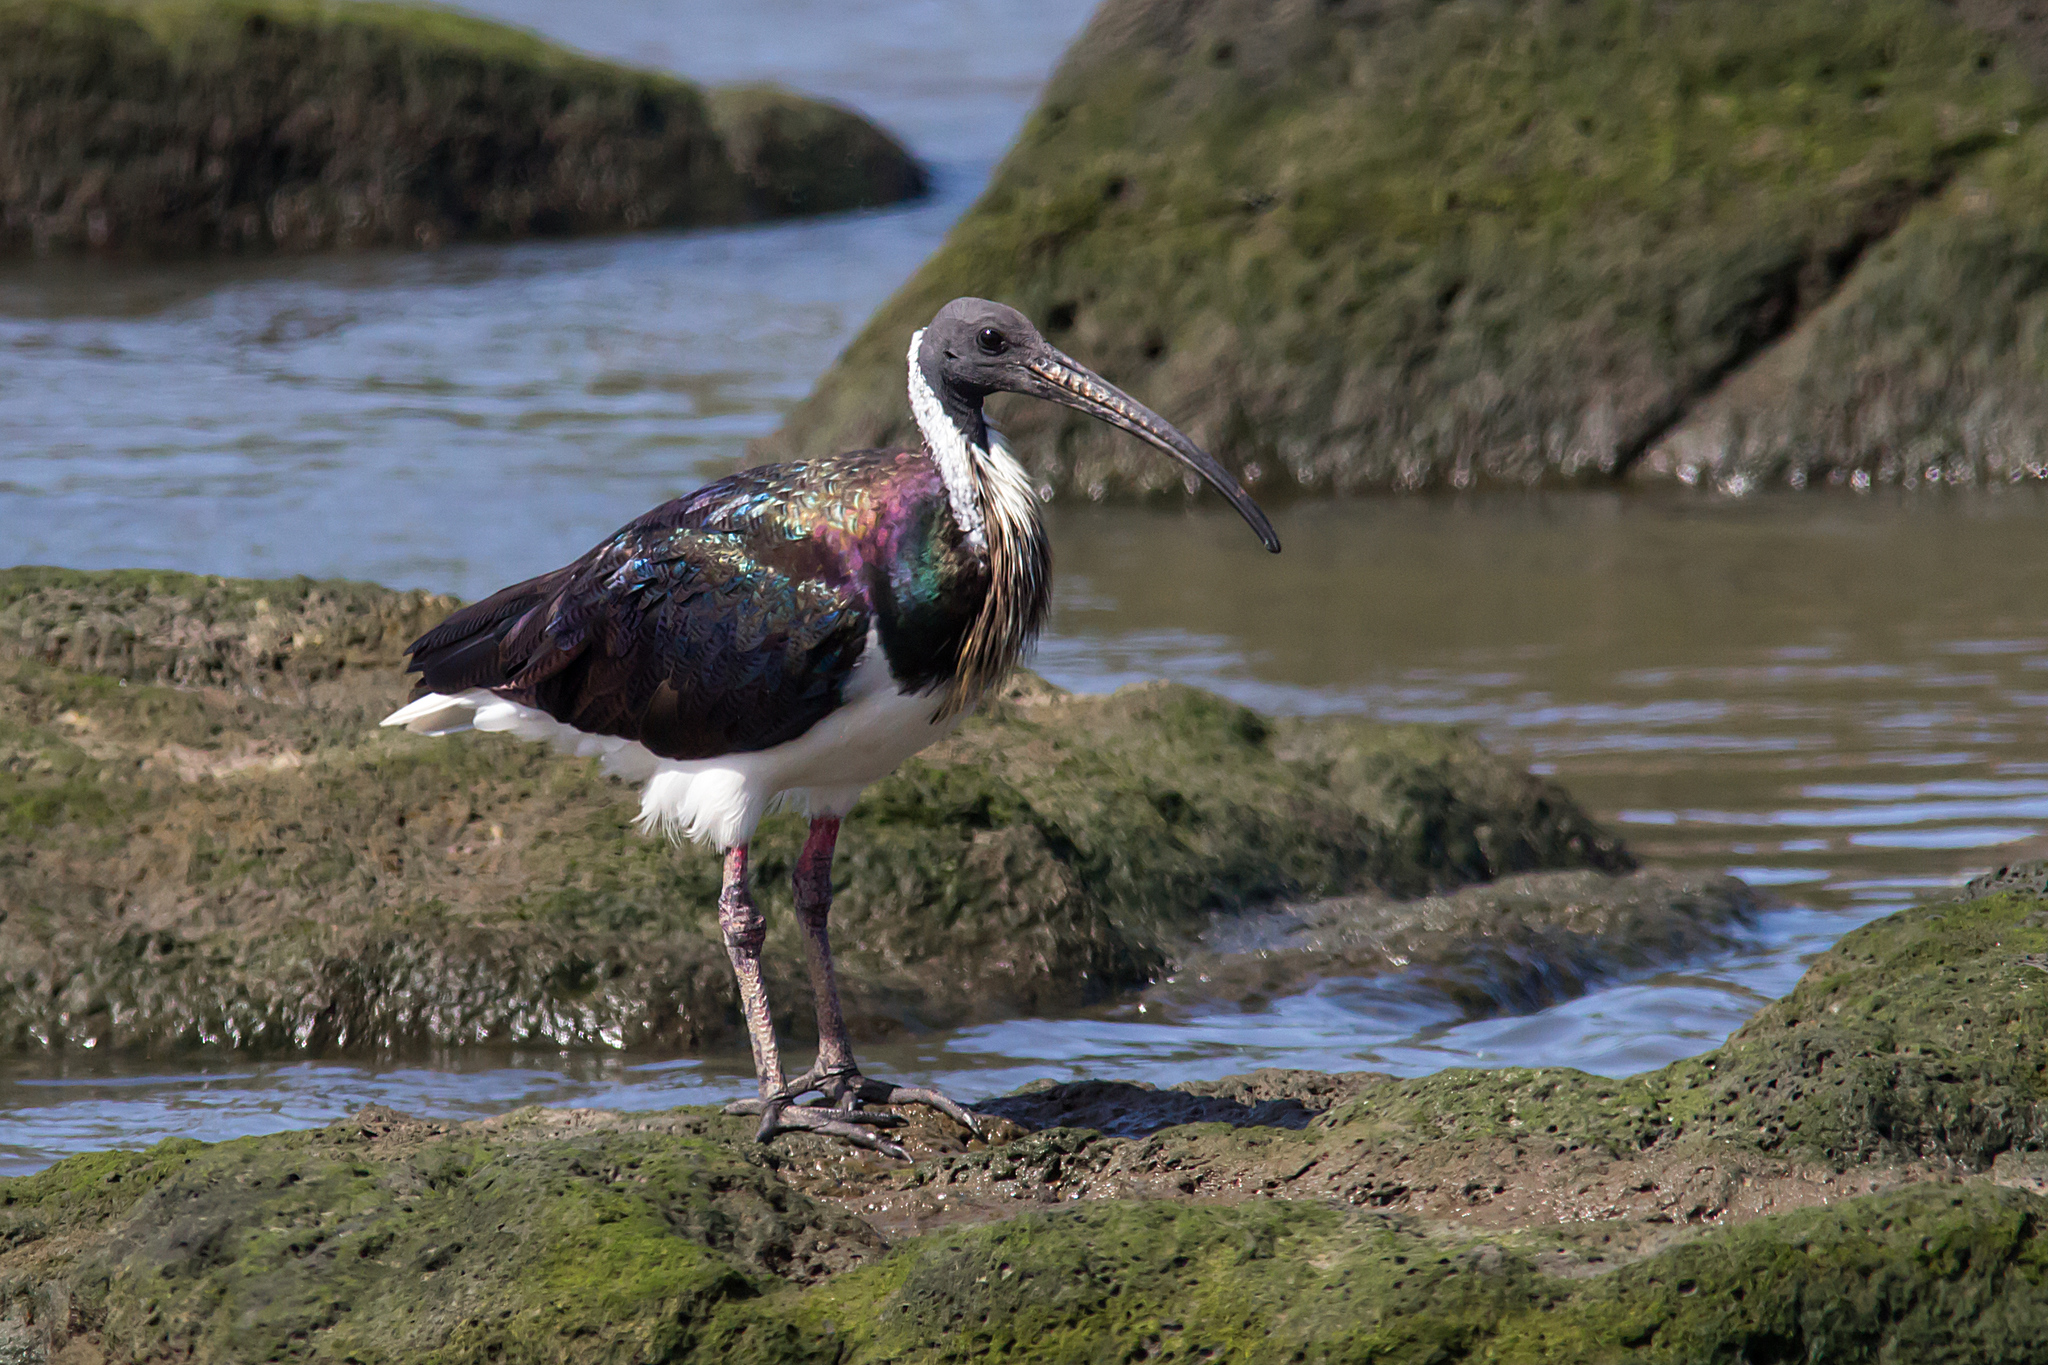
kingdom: Animalia
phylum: Chordata
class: Aves
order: Pelecaniformes
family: Threskiornithidae
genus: Threskiornis
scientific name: Threskiornis spinicollis
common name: Straw-necked ibis
